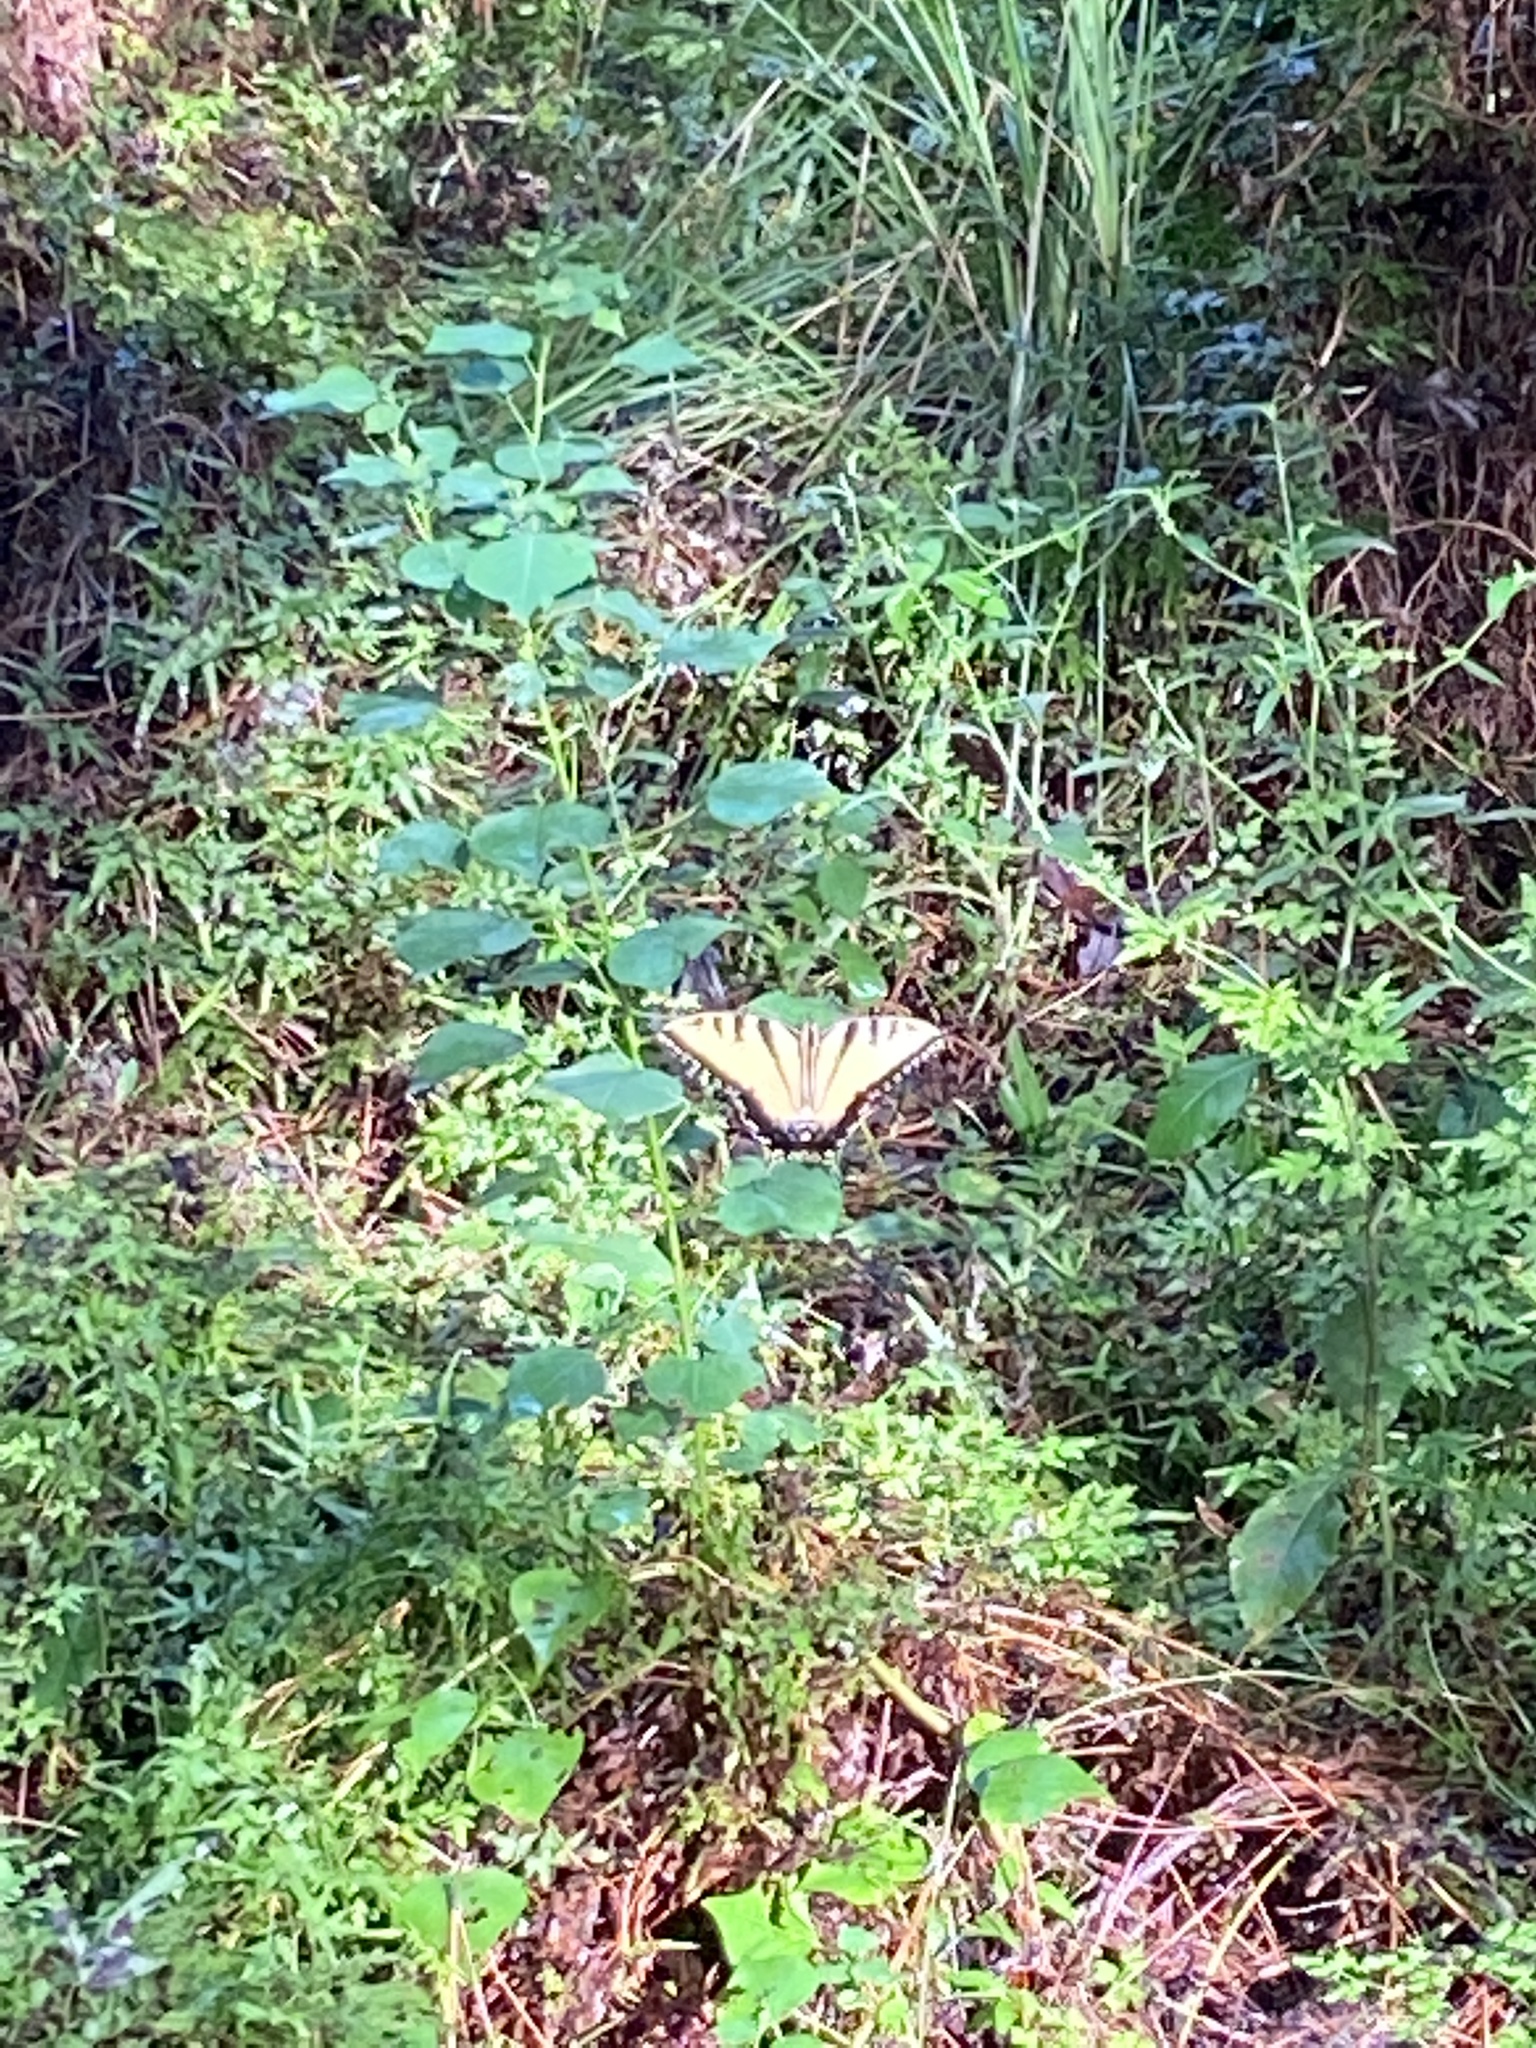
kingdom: Animalia
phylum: Arthropoda
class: Insecta
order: Lepidoptera
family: Papilionidae
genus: Papilio
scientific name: Papilio glaucus
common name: Tiger swallowtail
